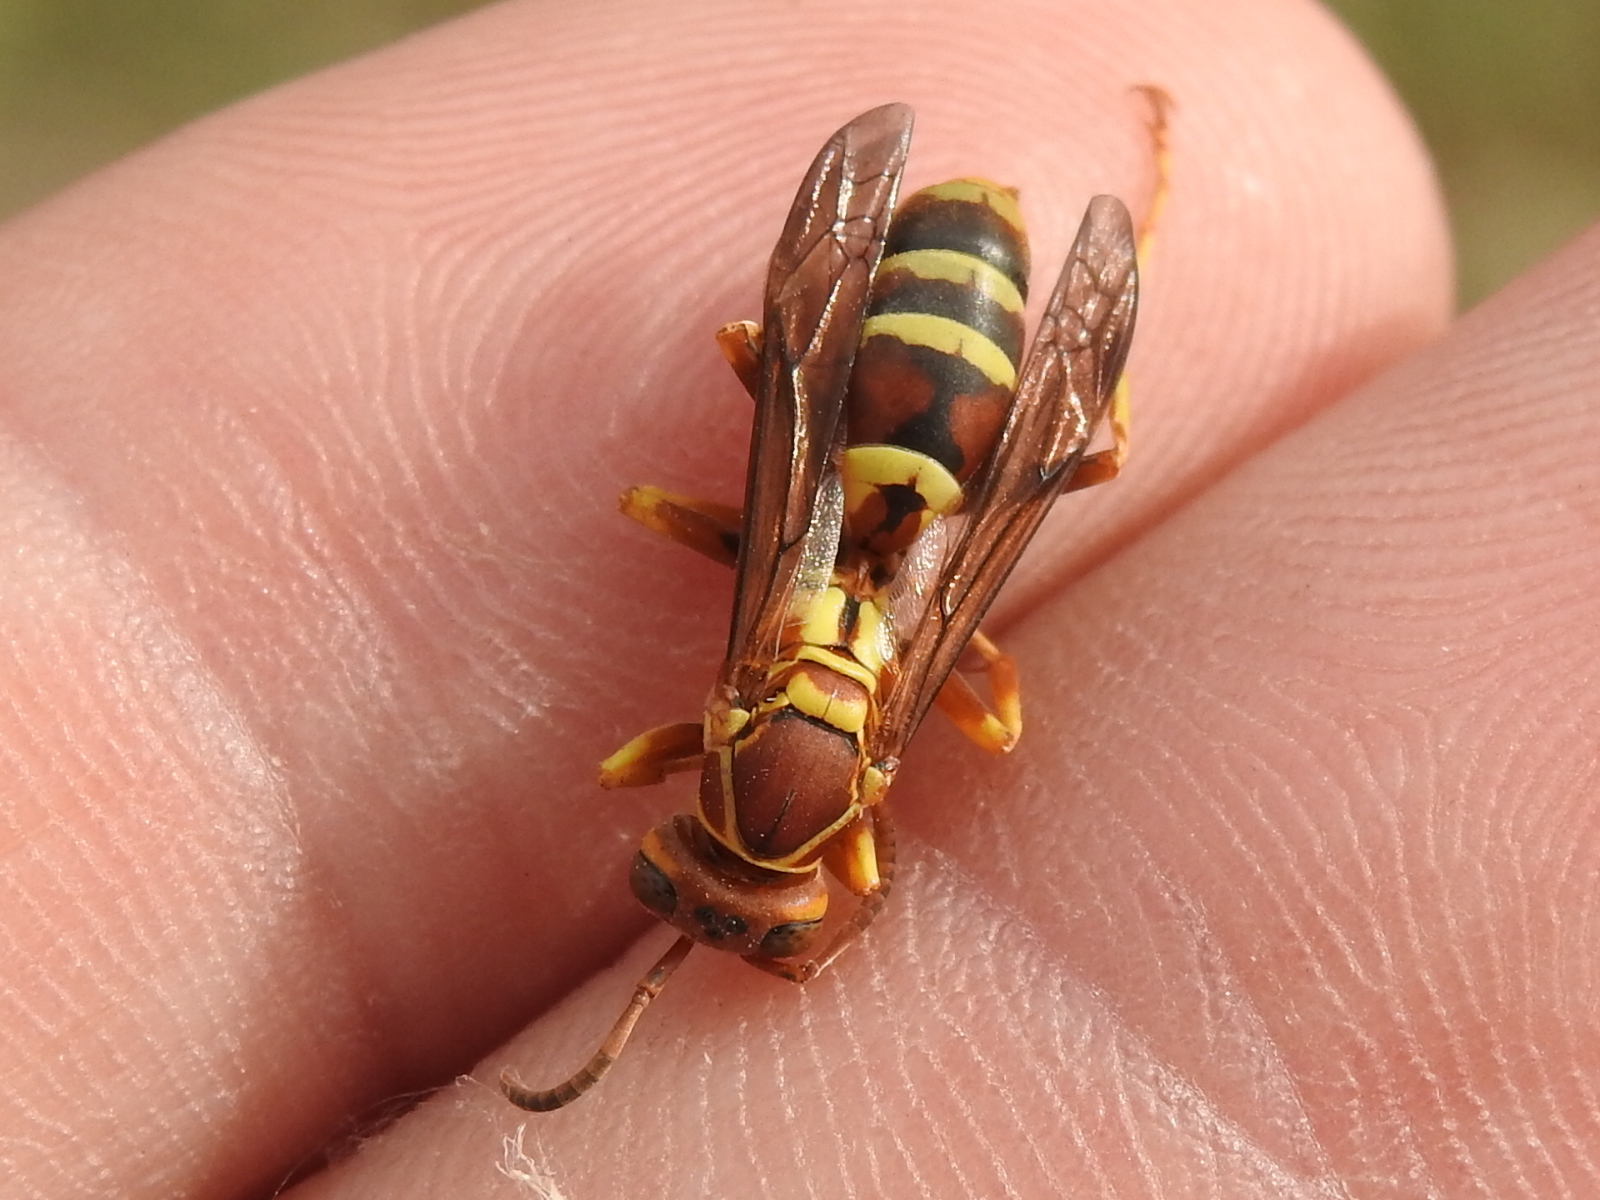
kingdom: Animalia
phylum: Arthropoda
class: Insecta
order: Hymenoptera
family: Eumenidae
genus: Polistes
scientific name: Polistes dorsalis
